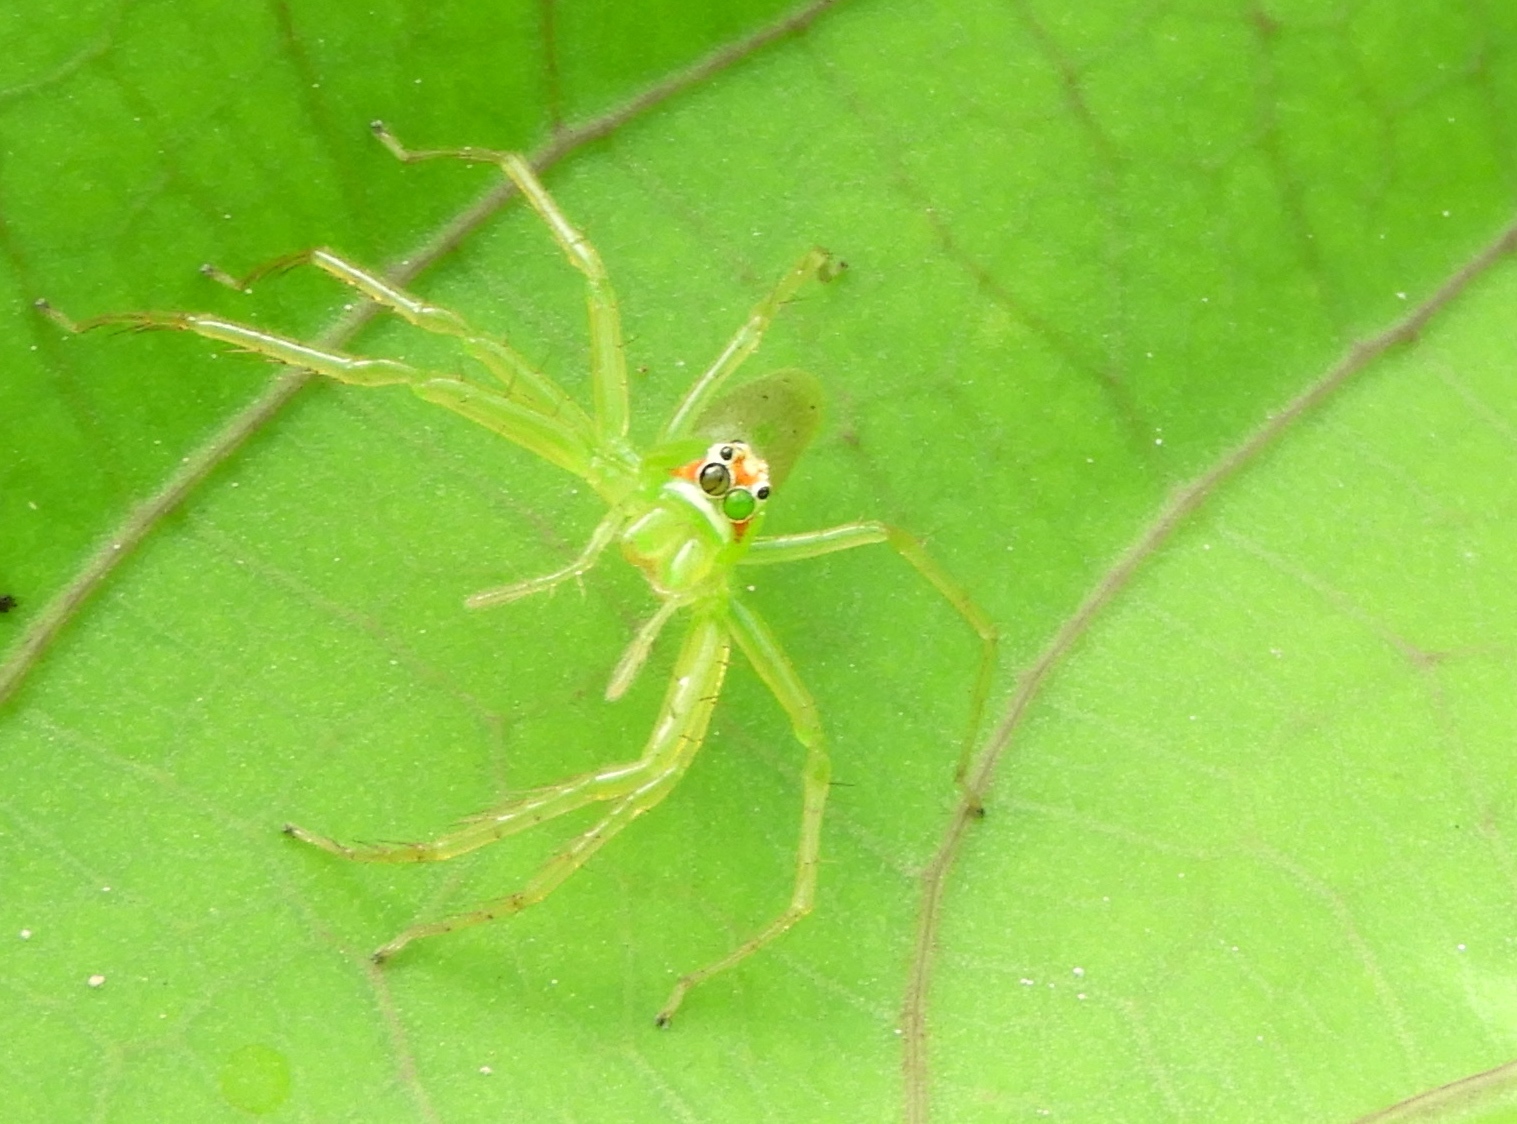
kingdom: Animalia
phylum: Arthropoda
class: Arachnida
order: Araneae
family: Salticidae
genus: Lyssomanes
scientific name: Lyssomanes
